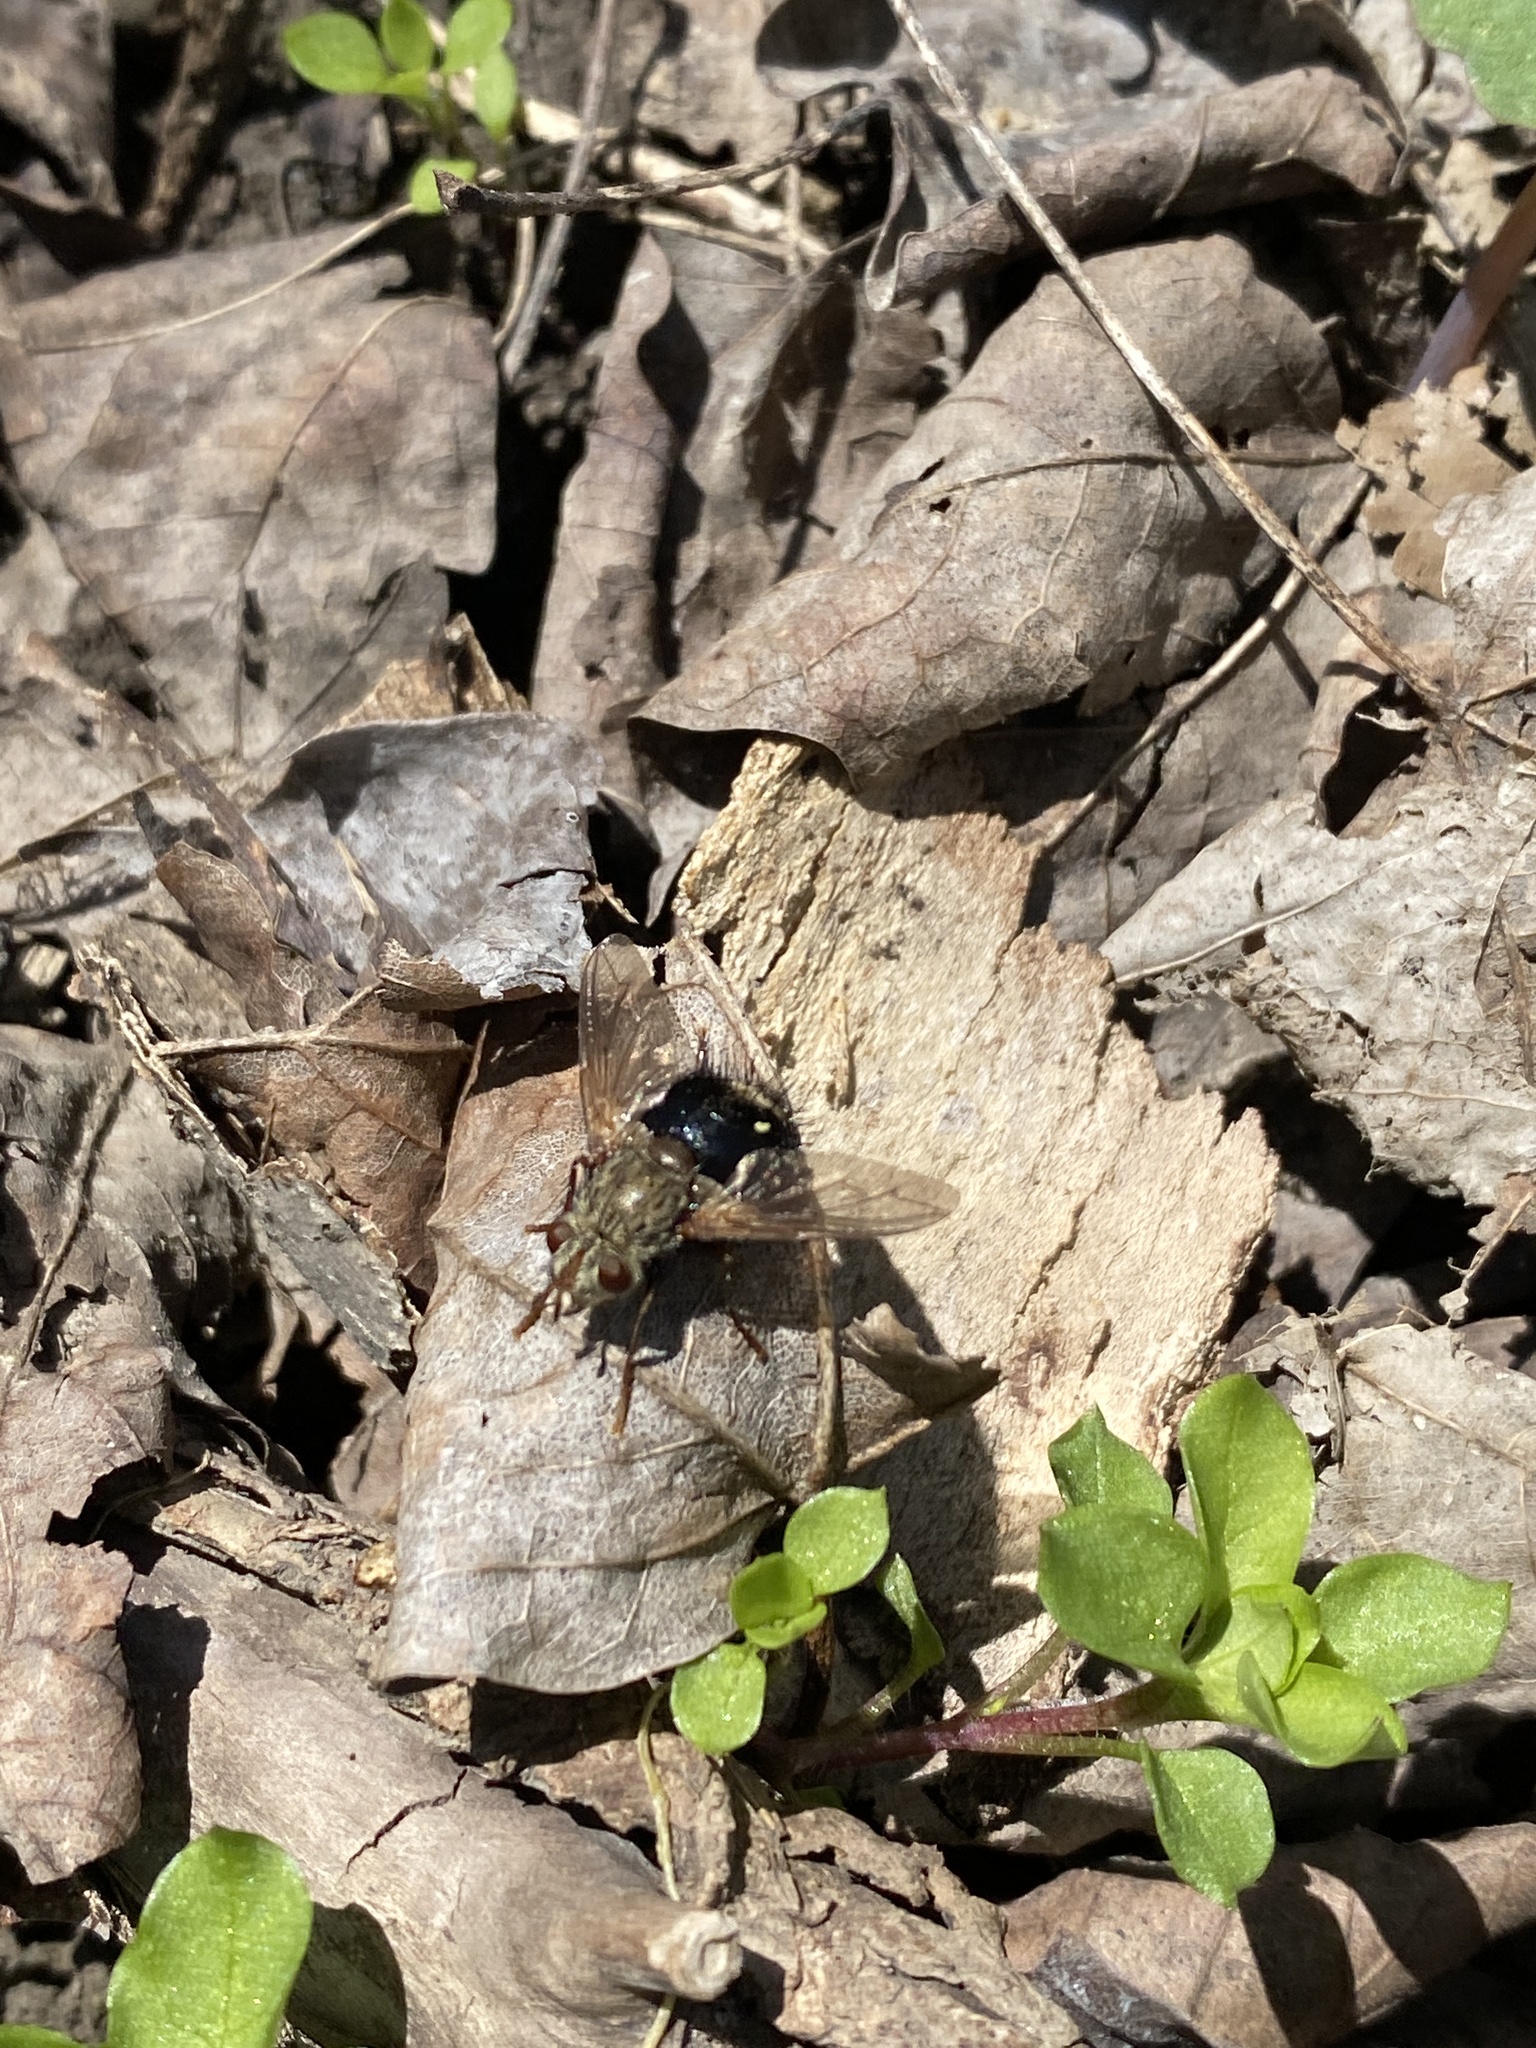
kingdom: Animalia
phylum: Arthropoda
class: Insecta
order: Diptera
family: Tachinidae
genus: Epalpus
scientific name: Epalpus signifer
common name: Early tachinid fly
